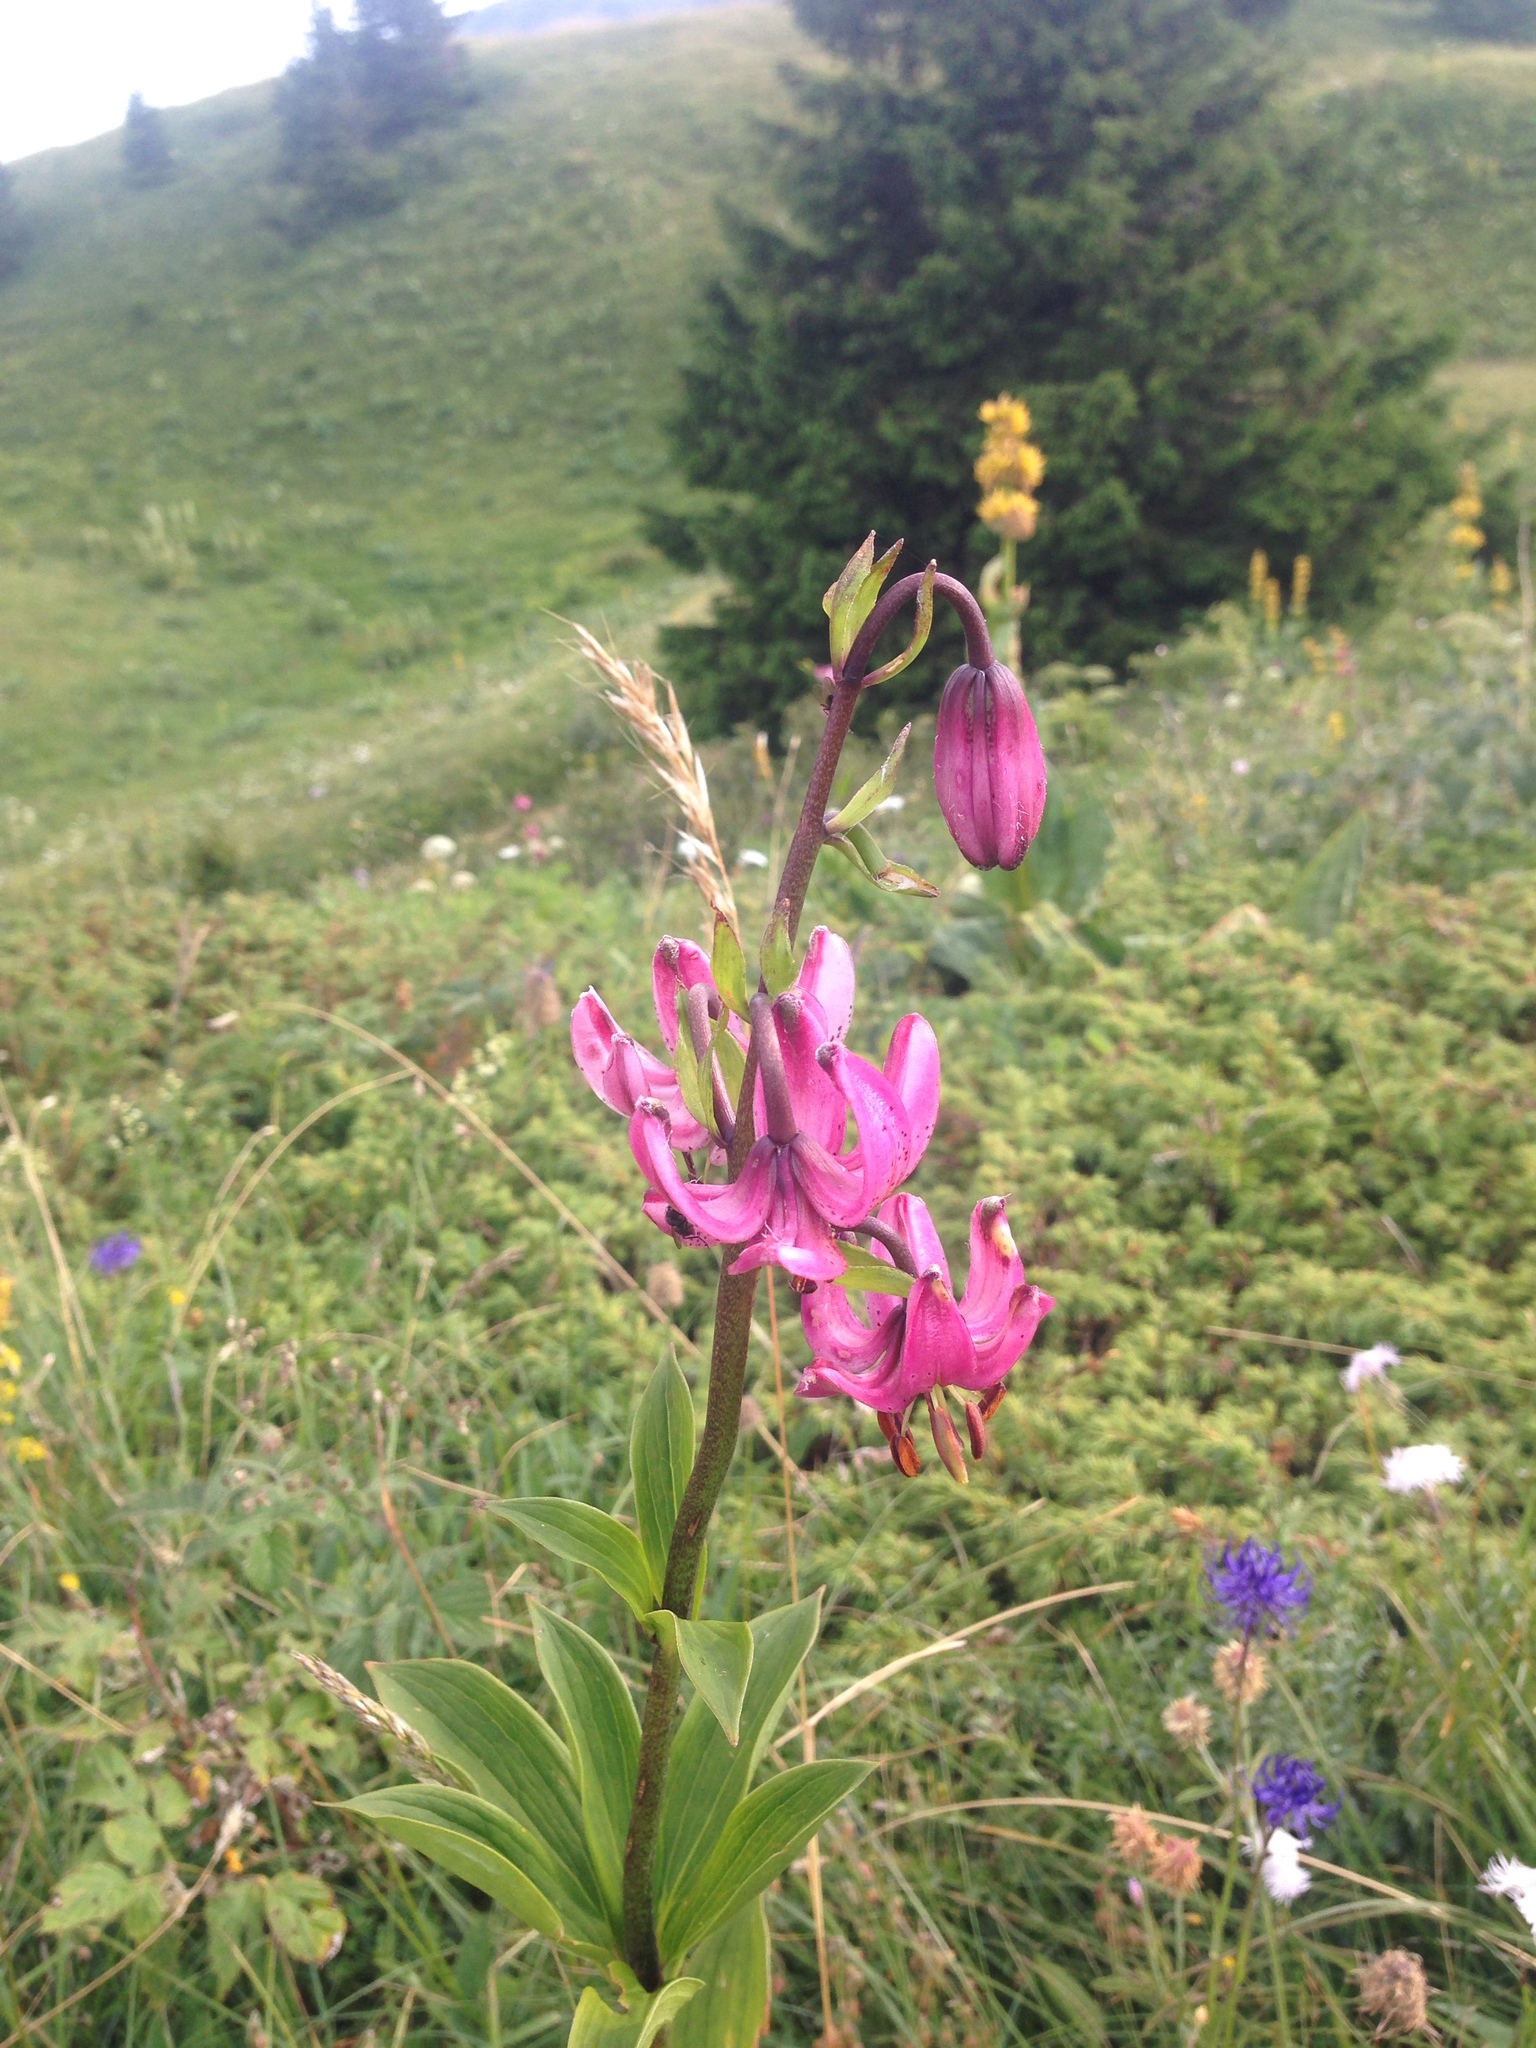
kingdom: Plantae
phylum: Tracheophyta
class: Liliopsida
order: Liliales
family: Liliaceae
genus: Lilium
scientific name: Lilium martagon
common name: Martagon lily
